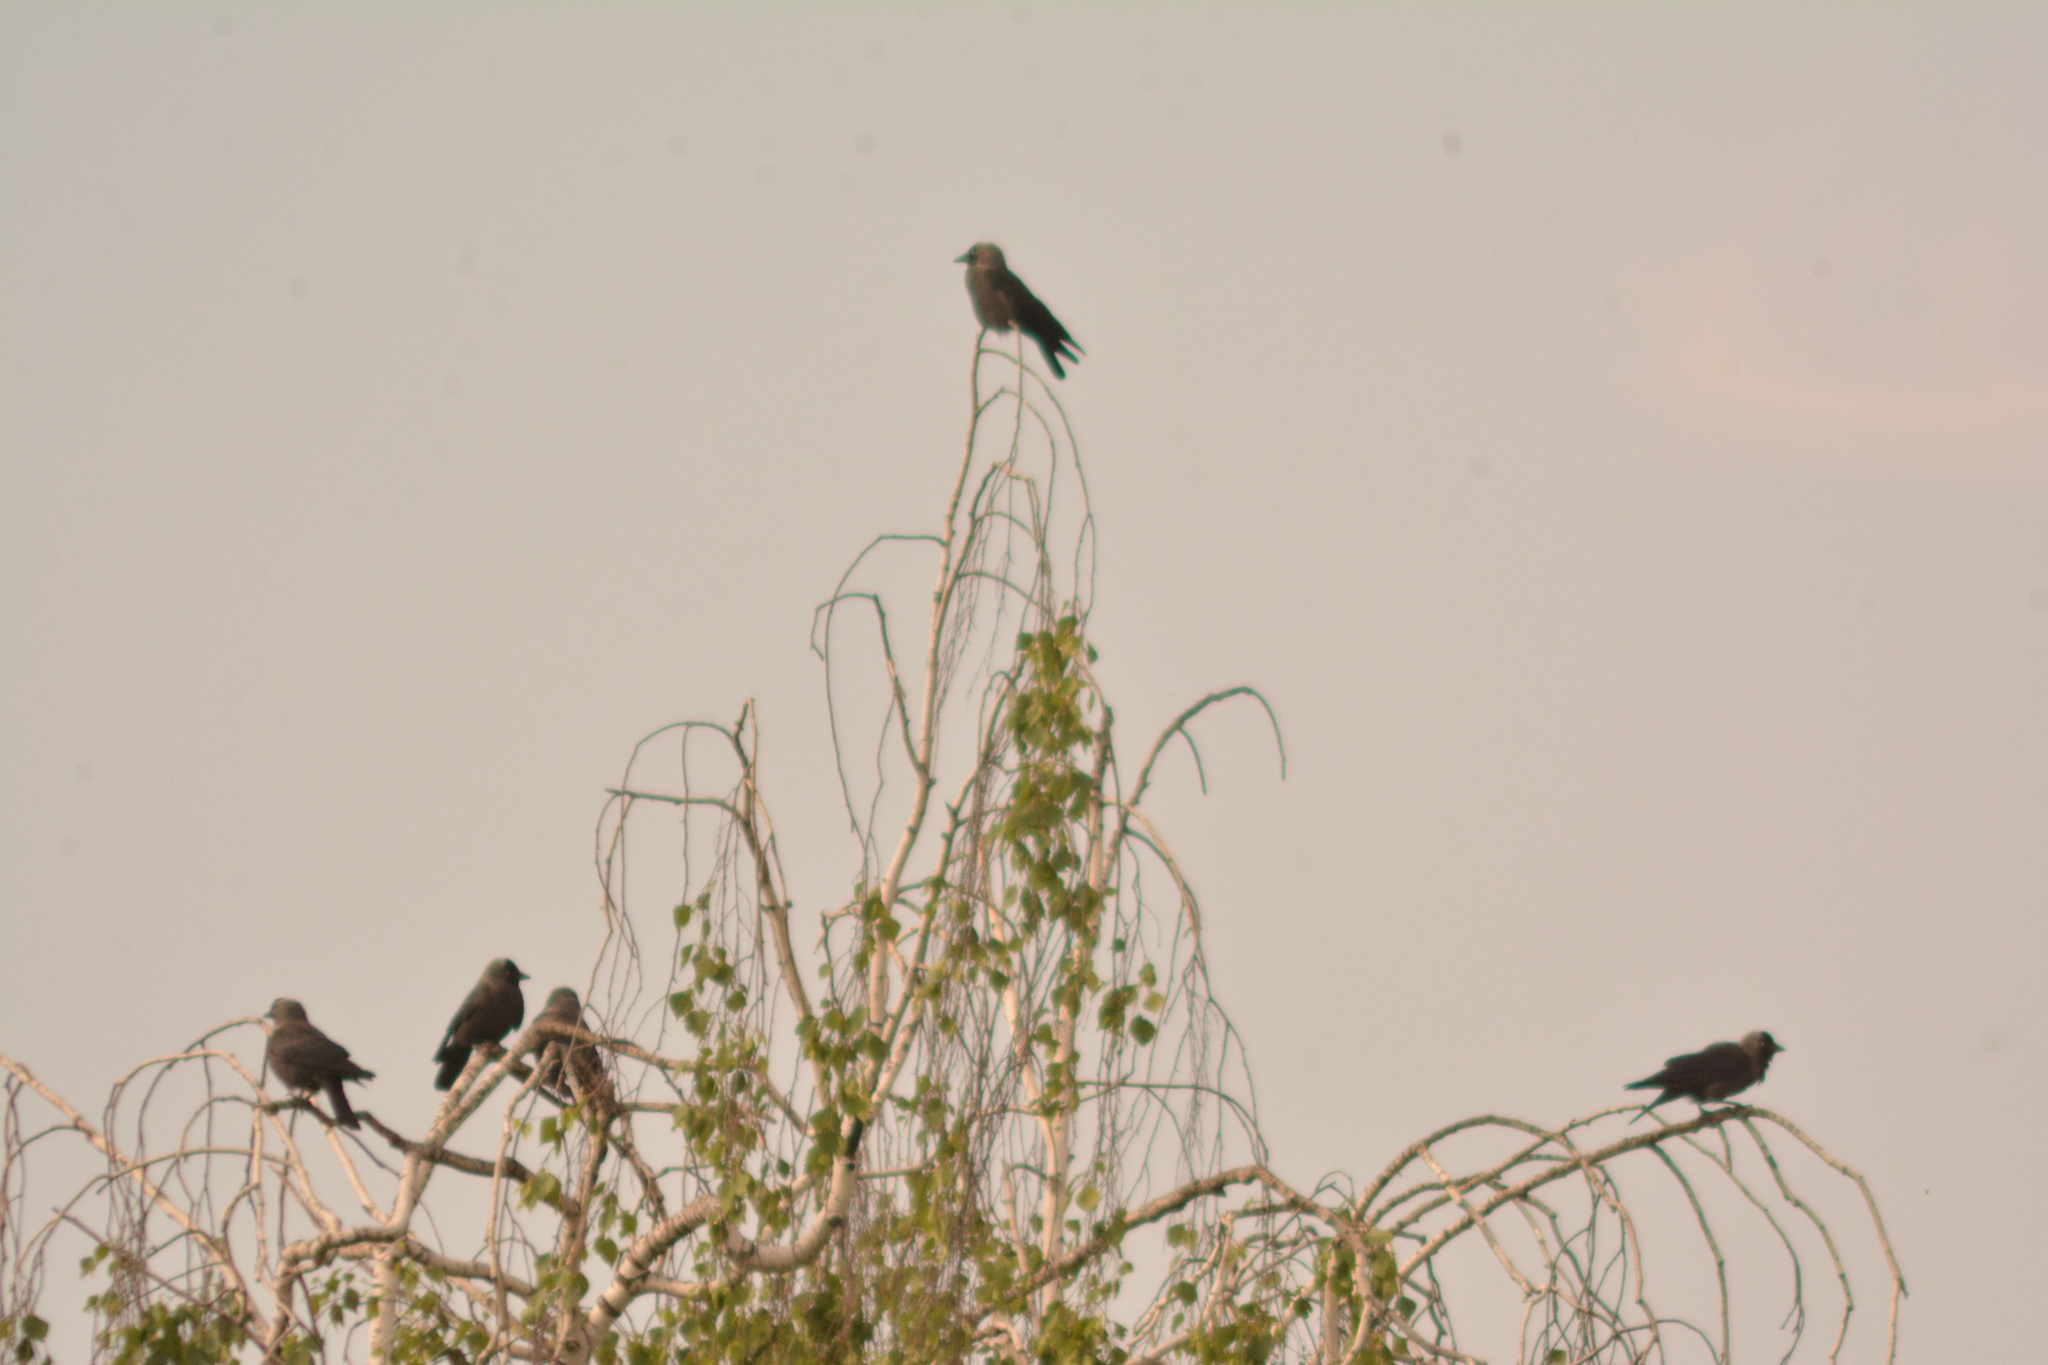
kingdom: Animalia
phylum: Chordata
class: Aves
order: Passeriformes
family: Corvidae
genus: Coloeus
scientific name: Coloeus monedula
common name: Western jackdaw
